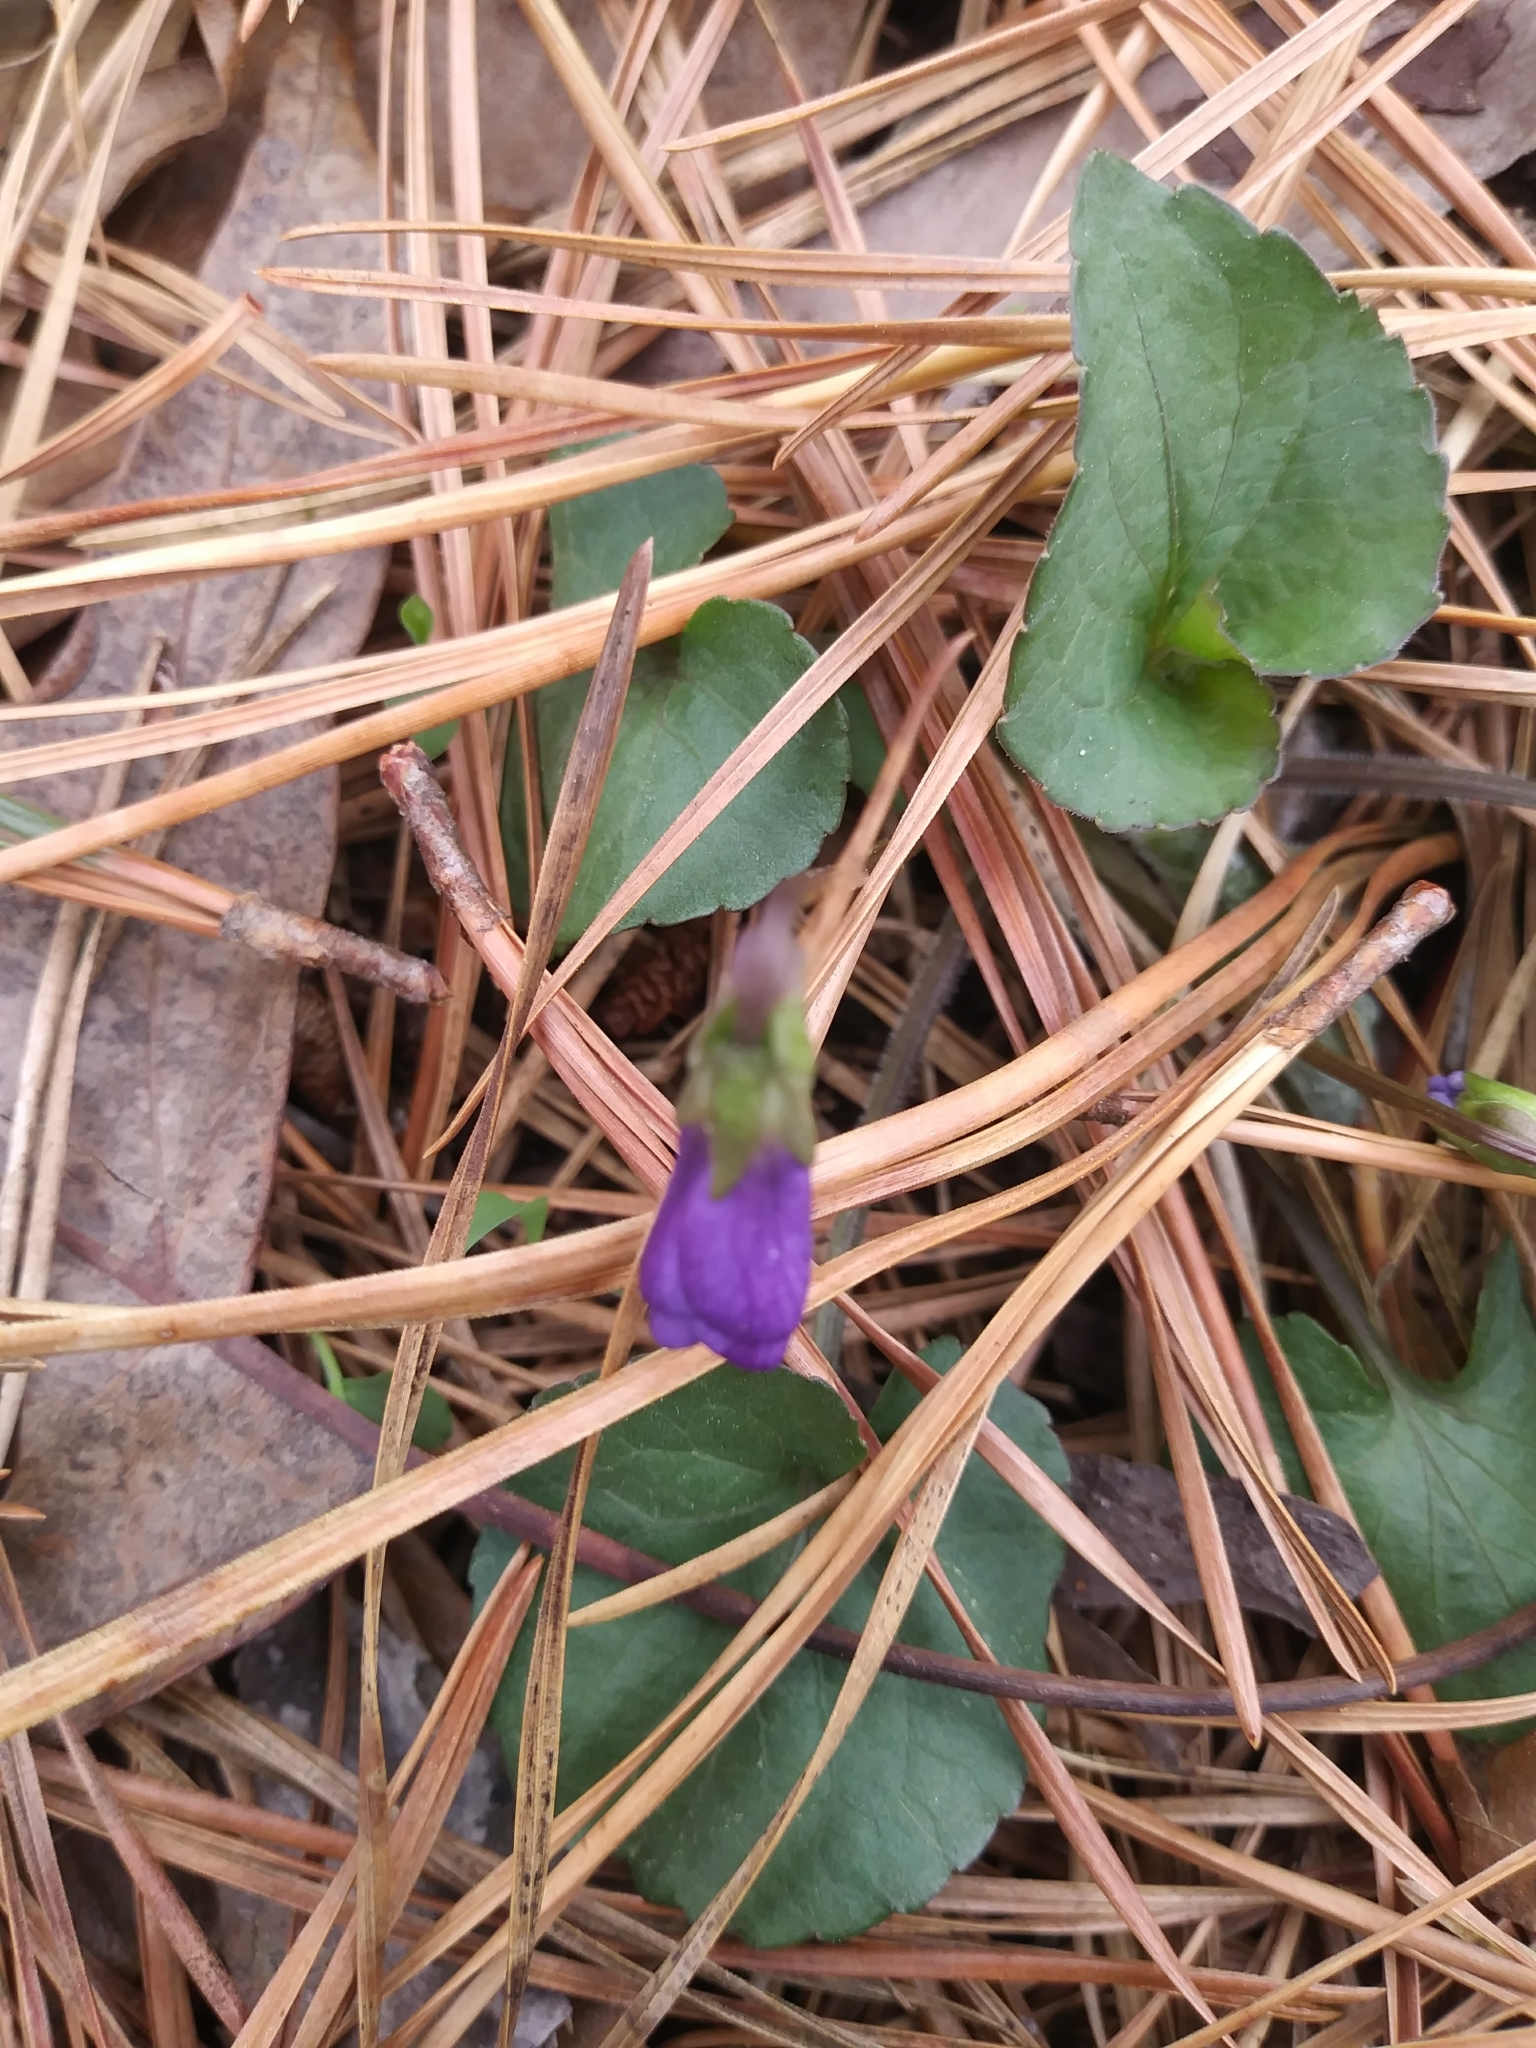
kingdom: Plantae
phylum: Tracheophyta
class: Magnoliopsida
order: Malpighiales
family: Violaceae
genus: Viola
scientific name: Viola sororia
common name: Dooryard violet
